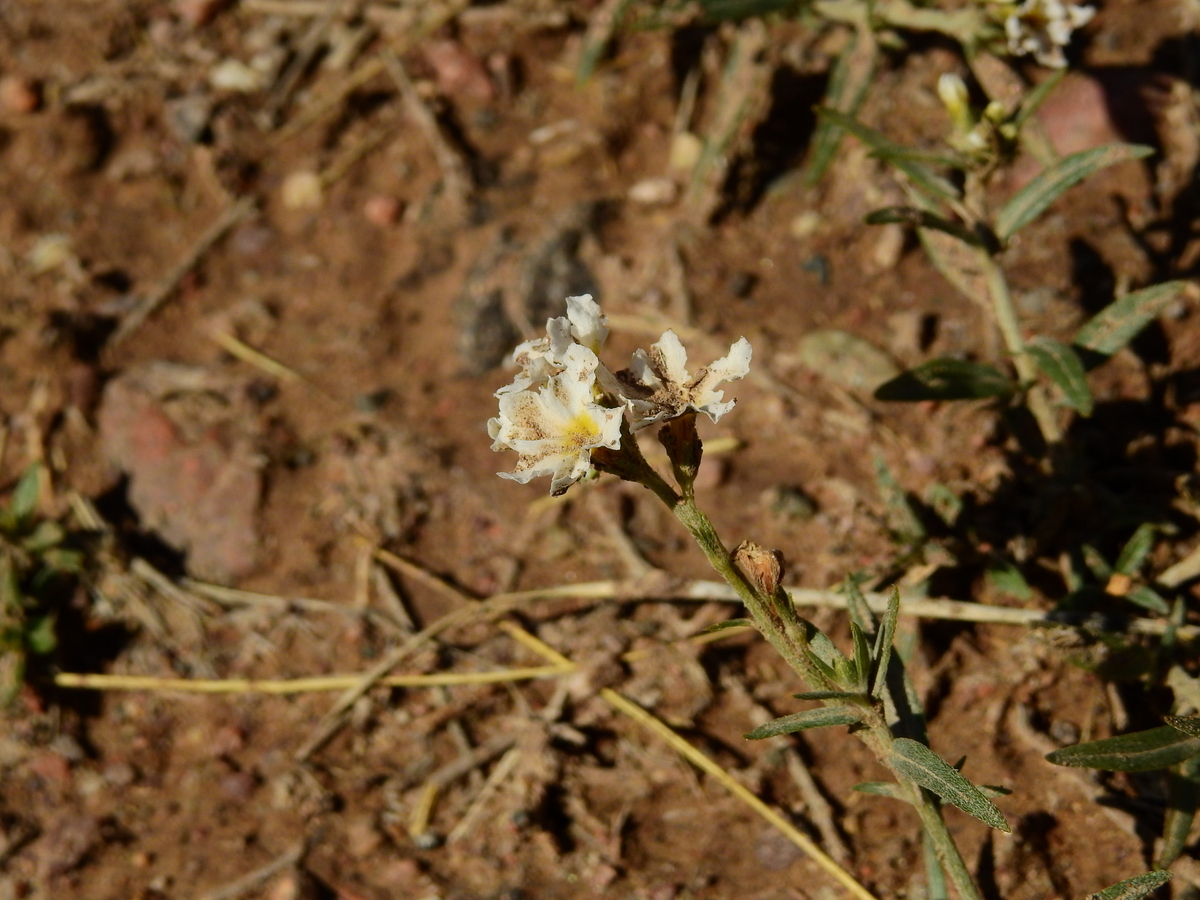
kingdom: Plantae
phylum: Tracheophyta
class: Magnoliopsida
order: Boraginales
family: Heliotropiaceae
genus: Euploca
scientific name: Euploca mendocina
